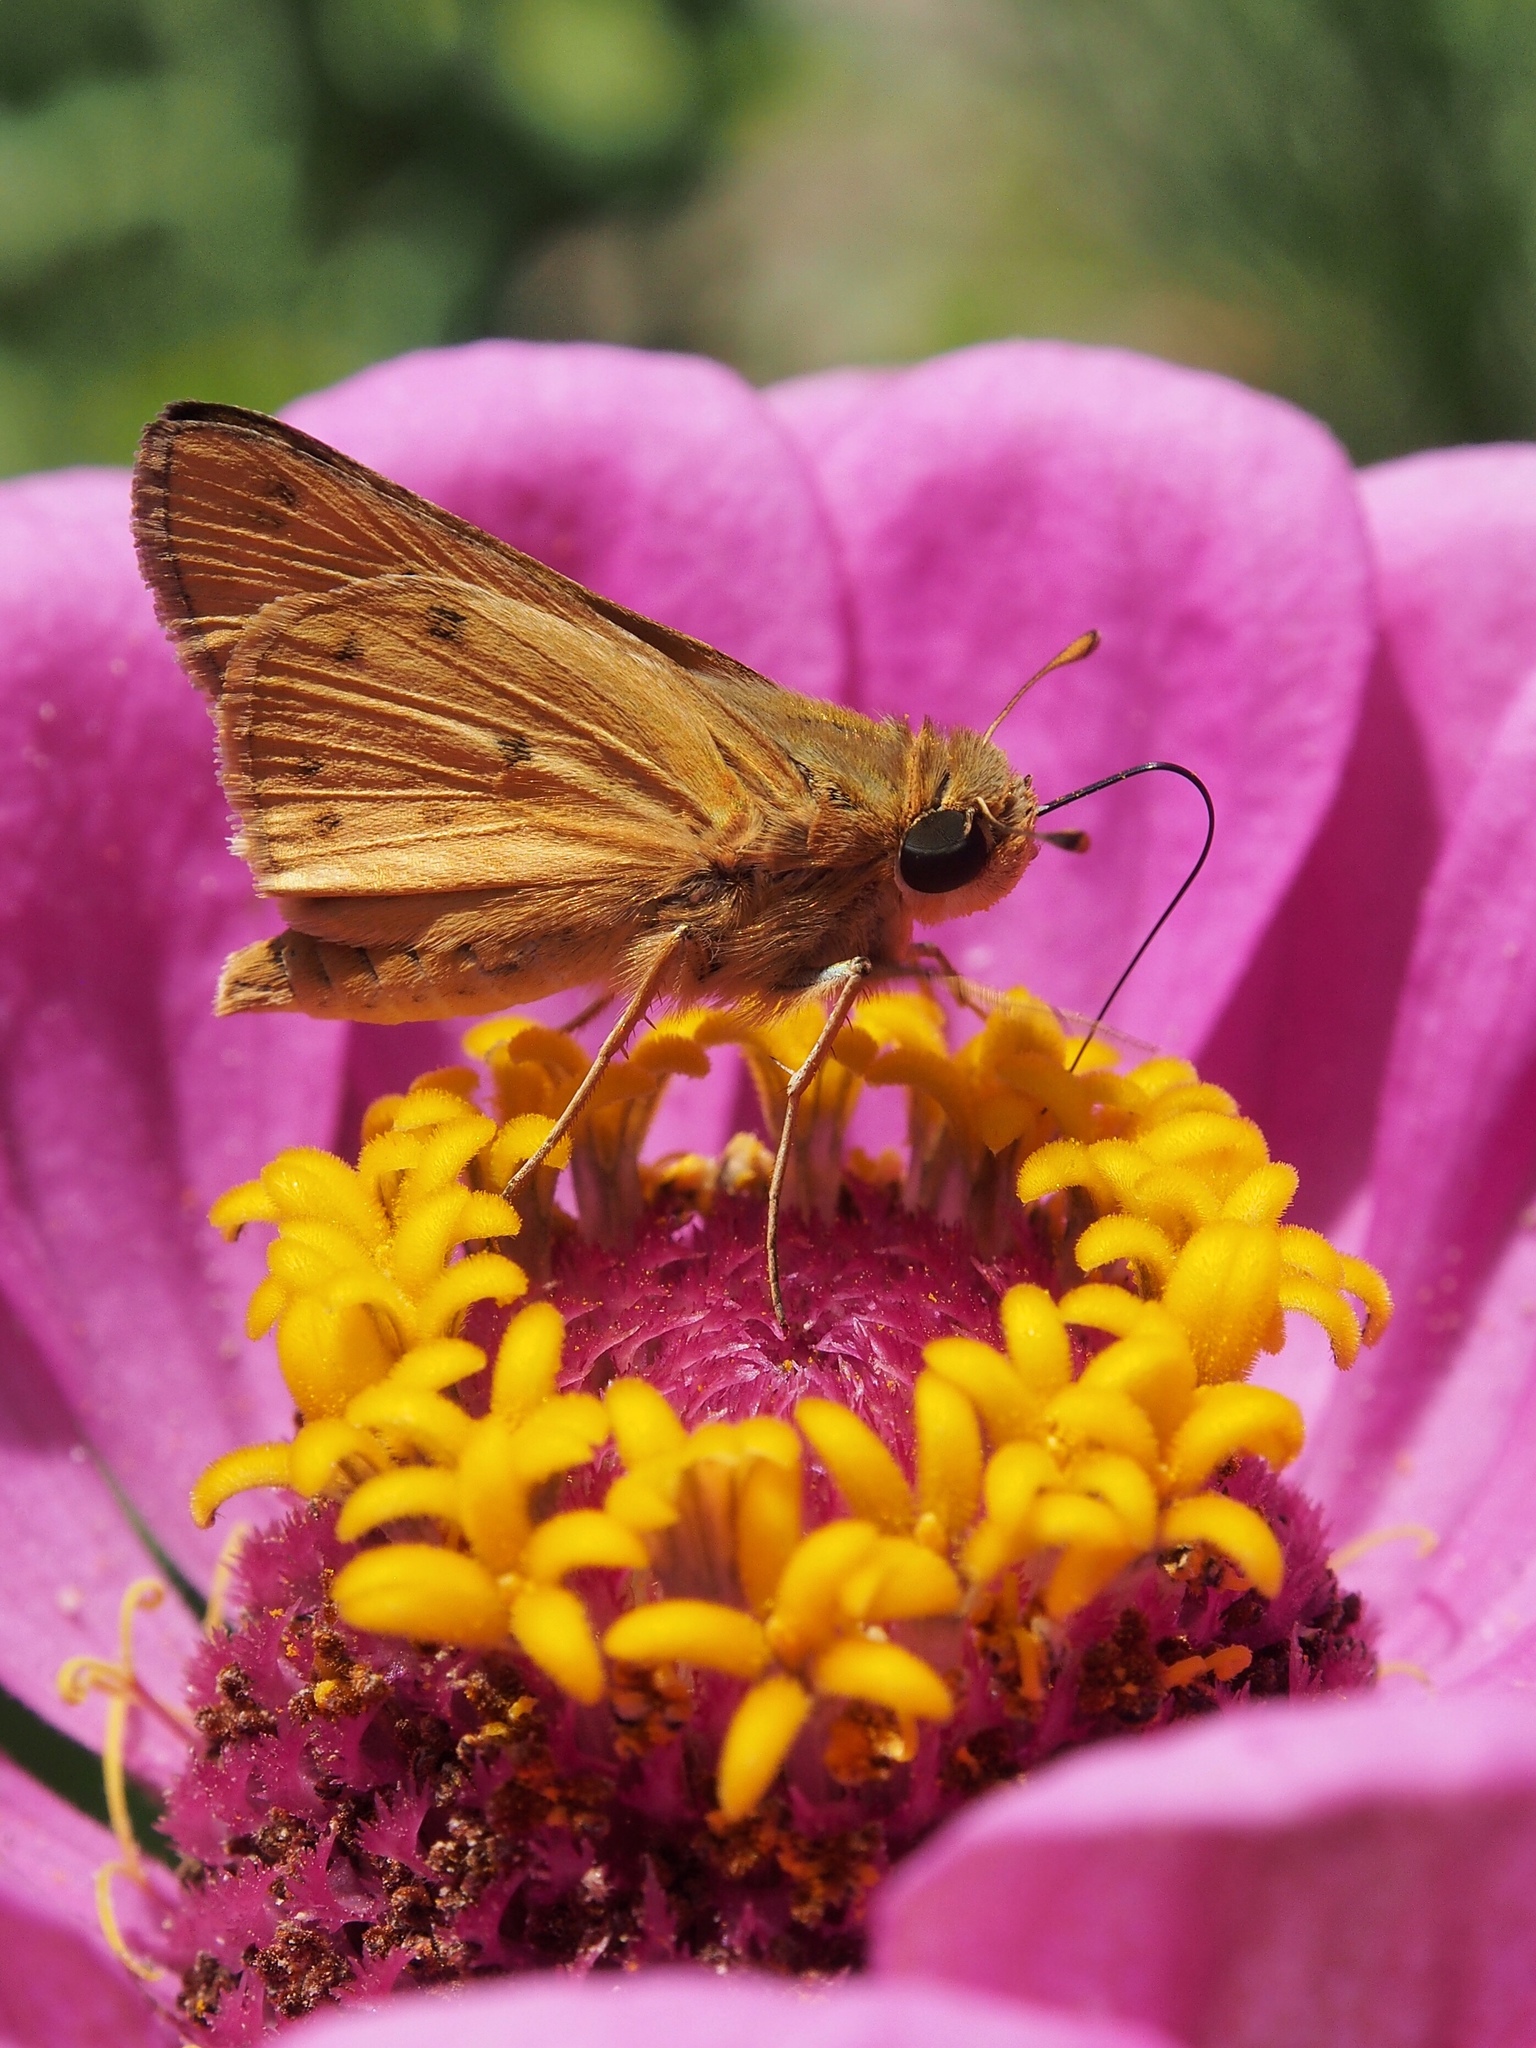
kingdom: Animalia
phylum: Arthropoda
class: Insecta
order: Lepidoptera
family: Hesperiidae
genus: Hylephila
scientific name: Hylephila phyleus
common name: Fiery skipper
